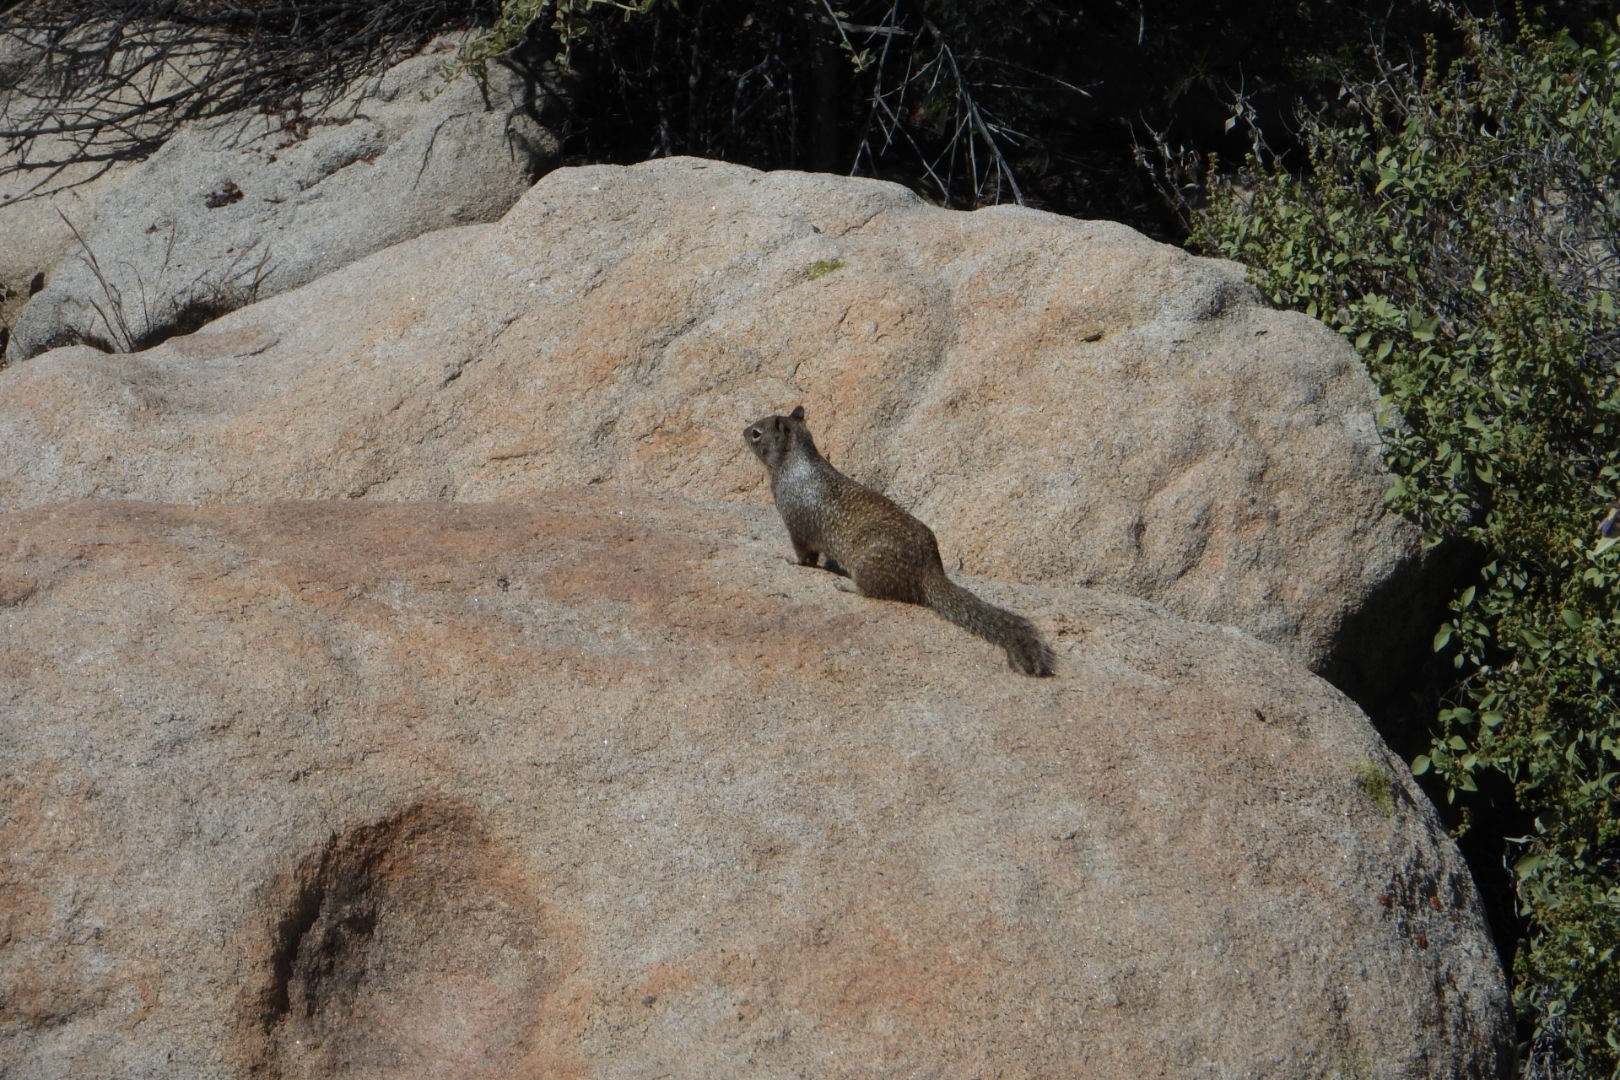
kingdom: Animalia
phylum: Chordata
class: Mammalia
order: Rodentia
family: Sciuridae
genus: Otospermophilus
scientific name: Otospermophilus beecheyi
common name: California ground squirrel
